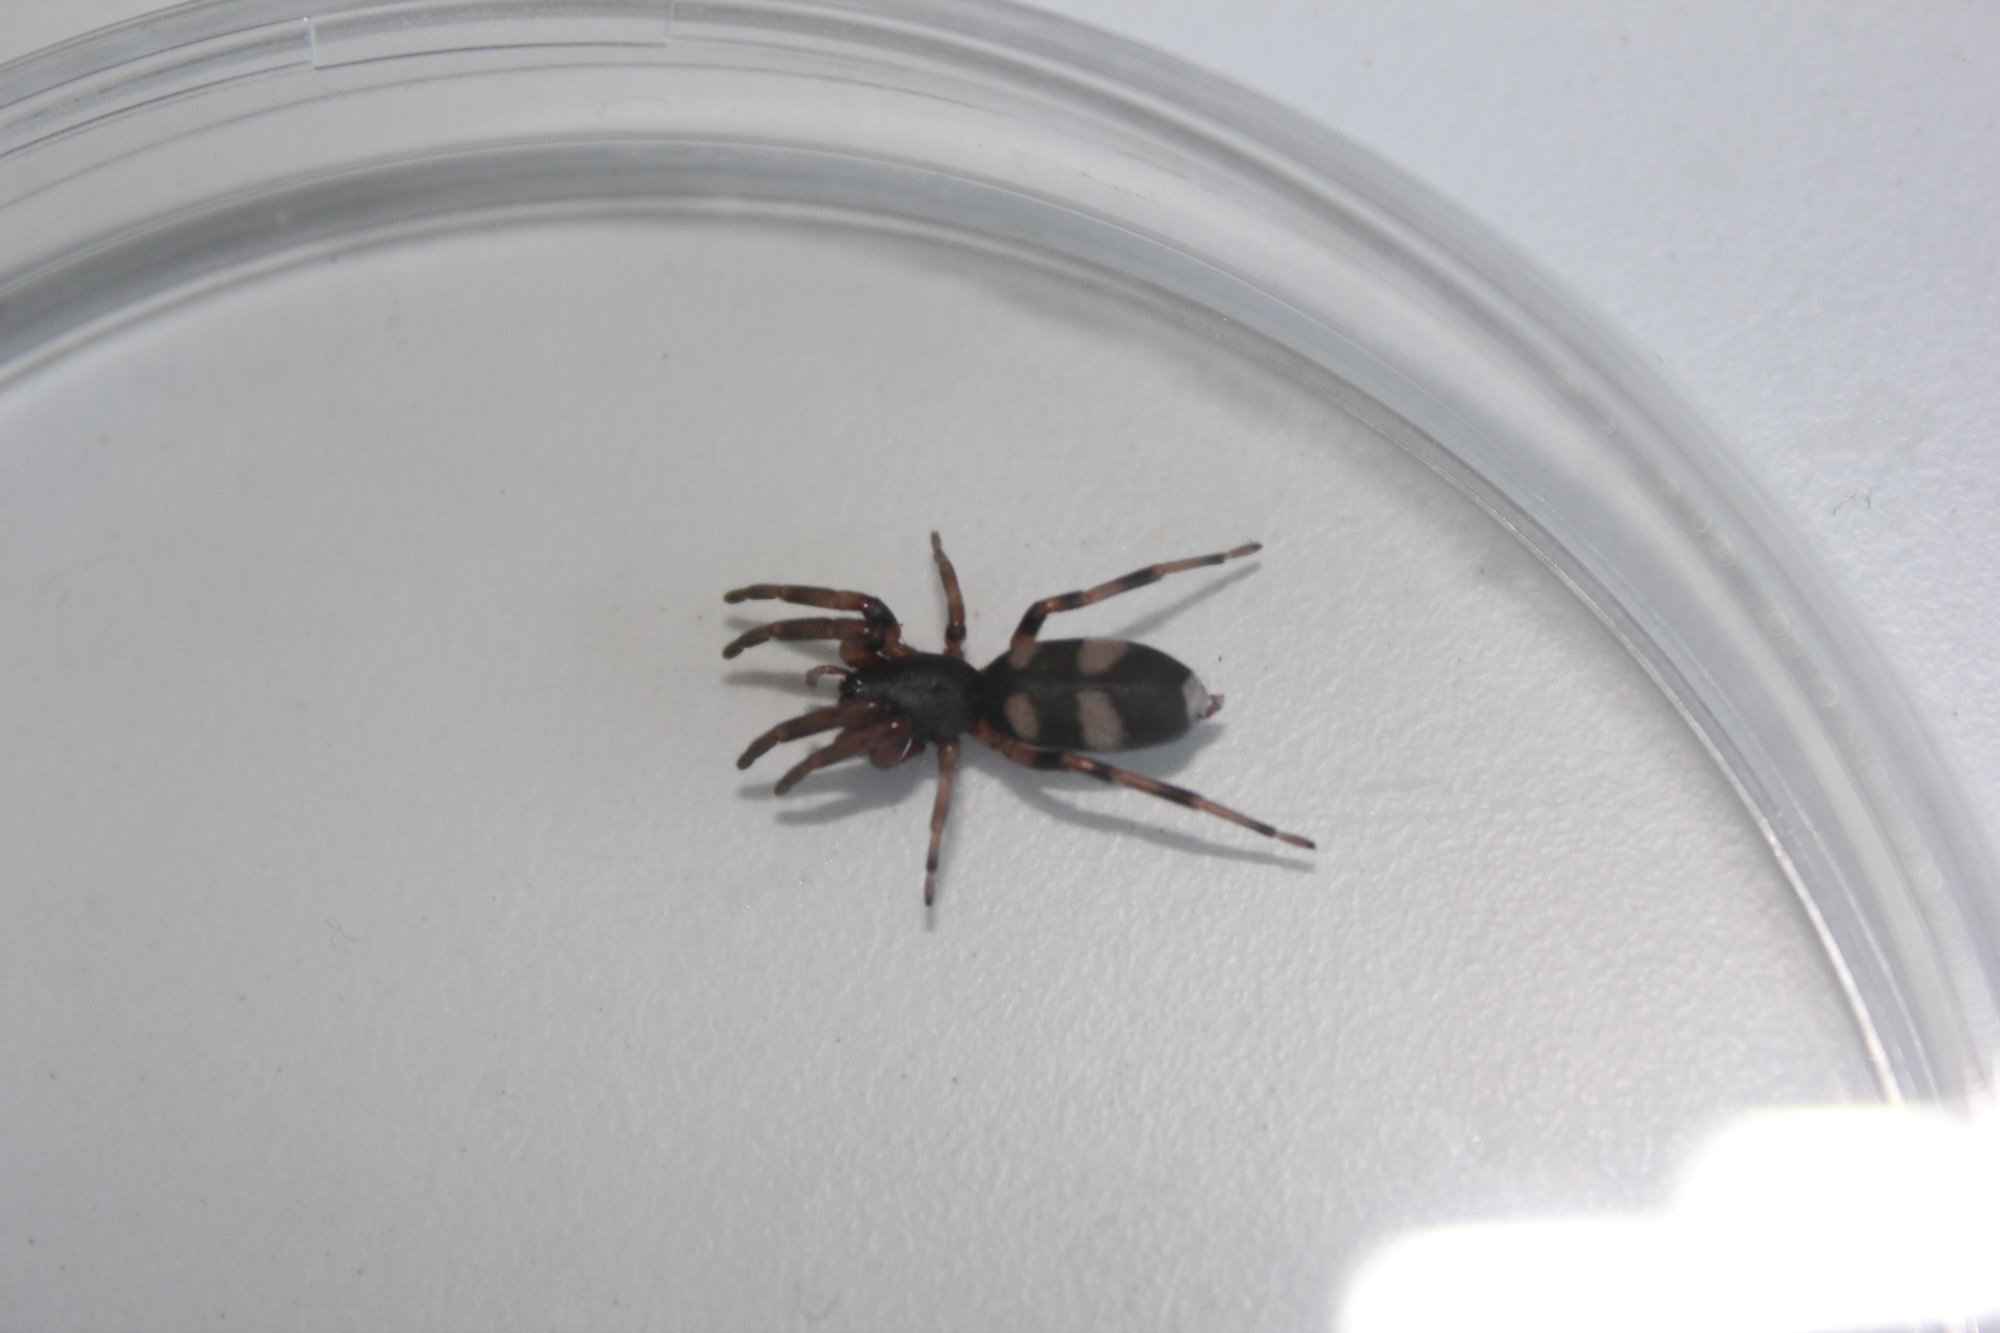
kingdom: Animalia
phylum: Arthropoda
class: Arachnida
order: Araneae
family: Lamponidae
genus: Lampona
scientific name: Lampona murina
